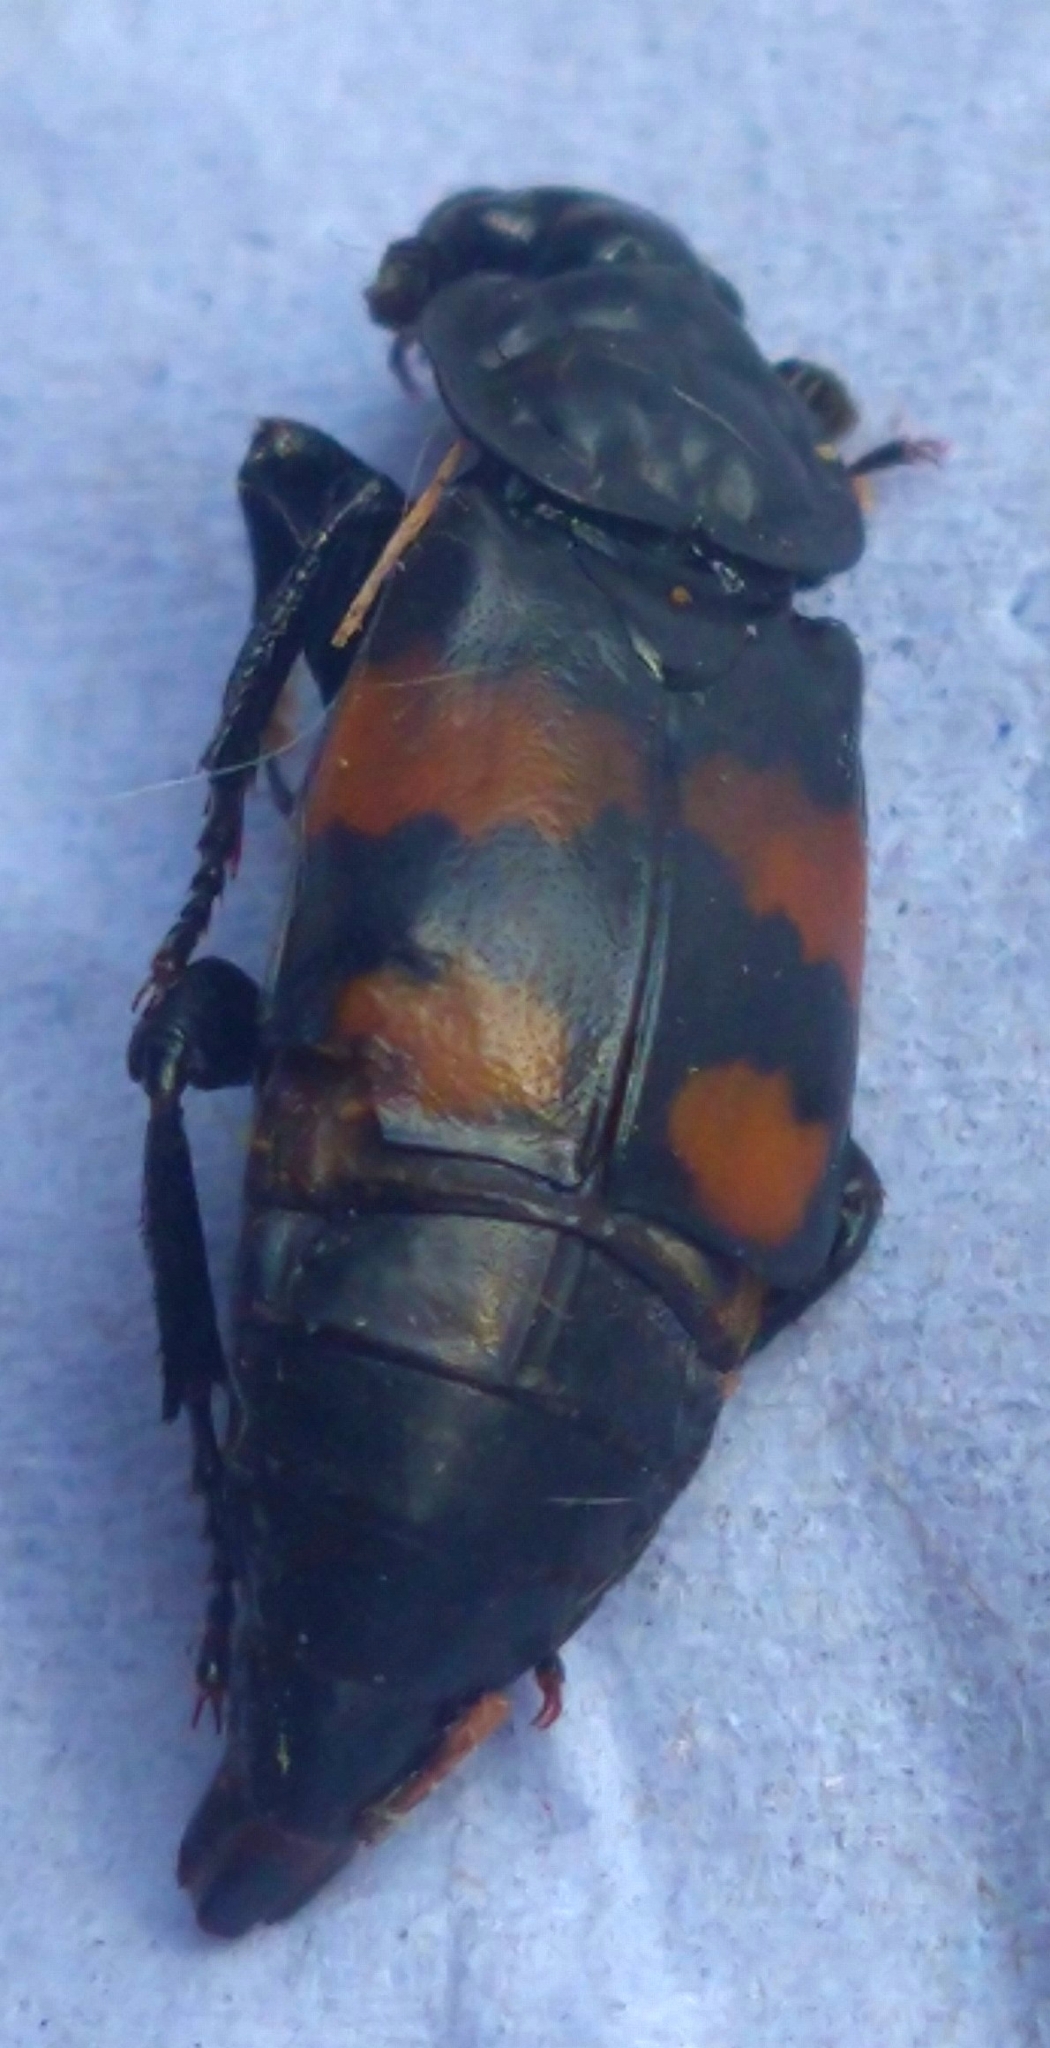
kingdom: Animalia
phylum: Arthropoda
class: Insecta
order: Coleoptera
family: Staphylinidae
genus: Nicrophorus
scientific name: Nicrophorus vespilloides
